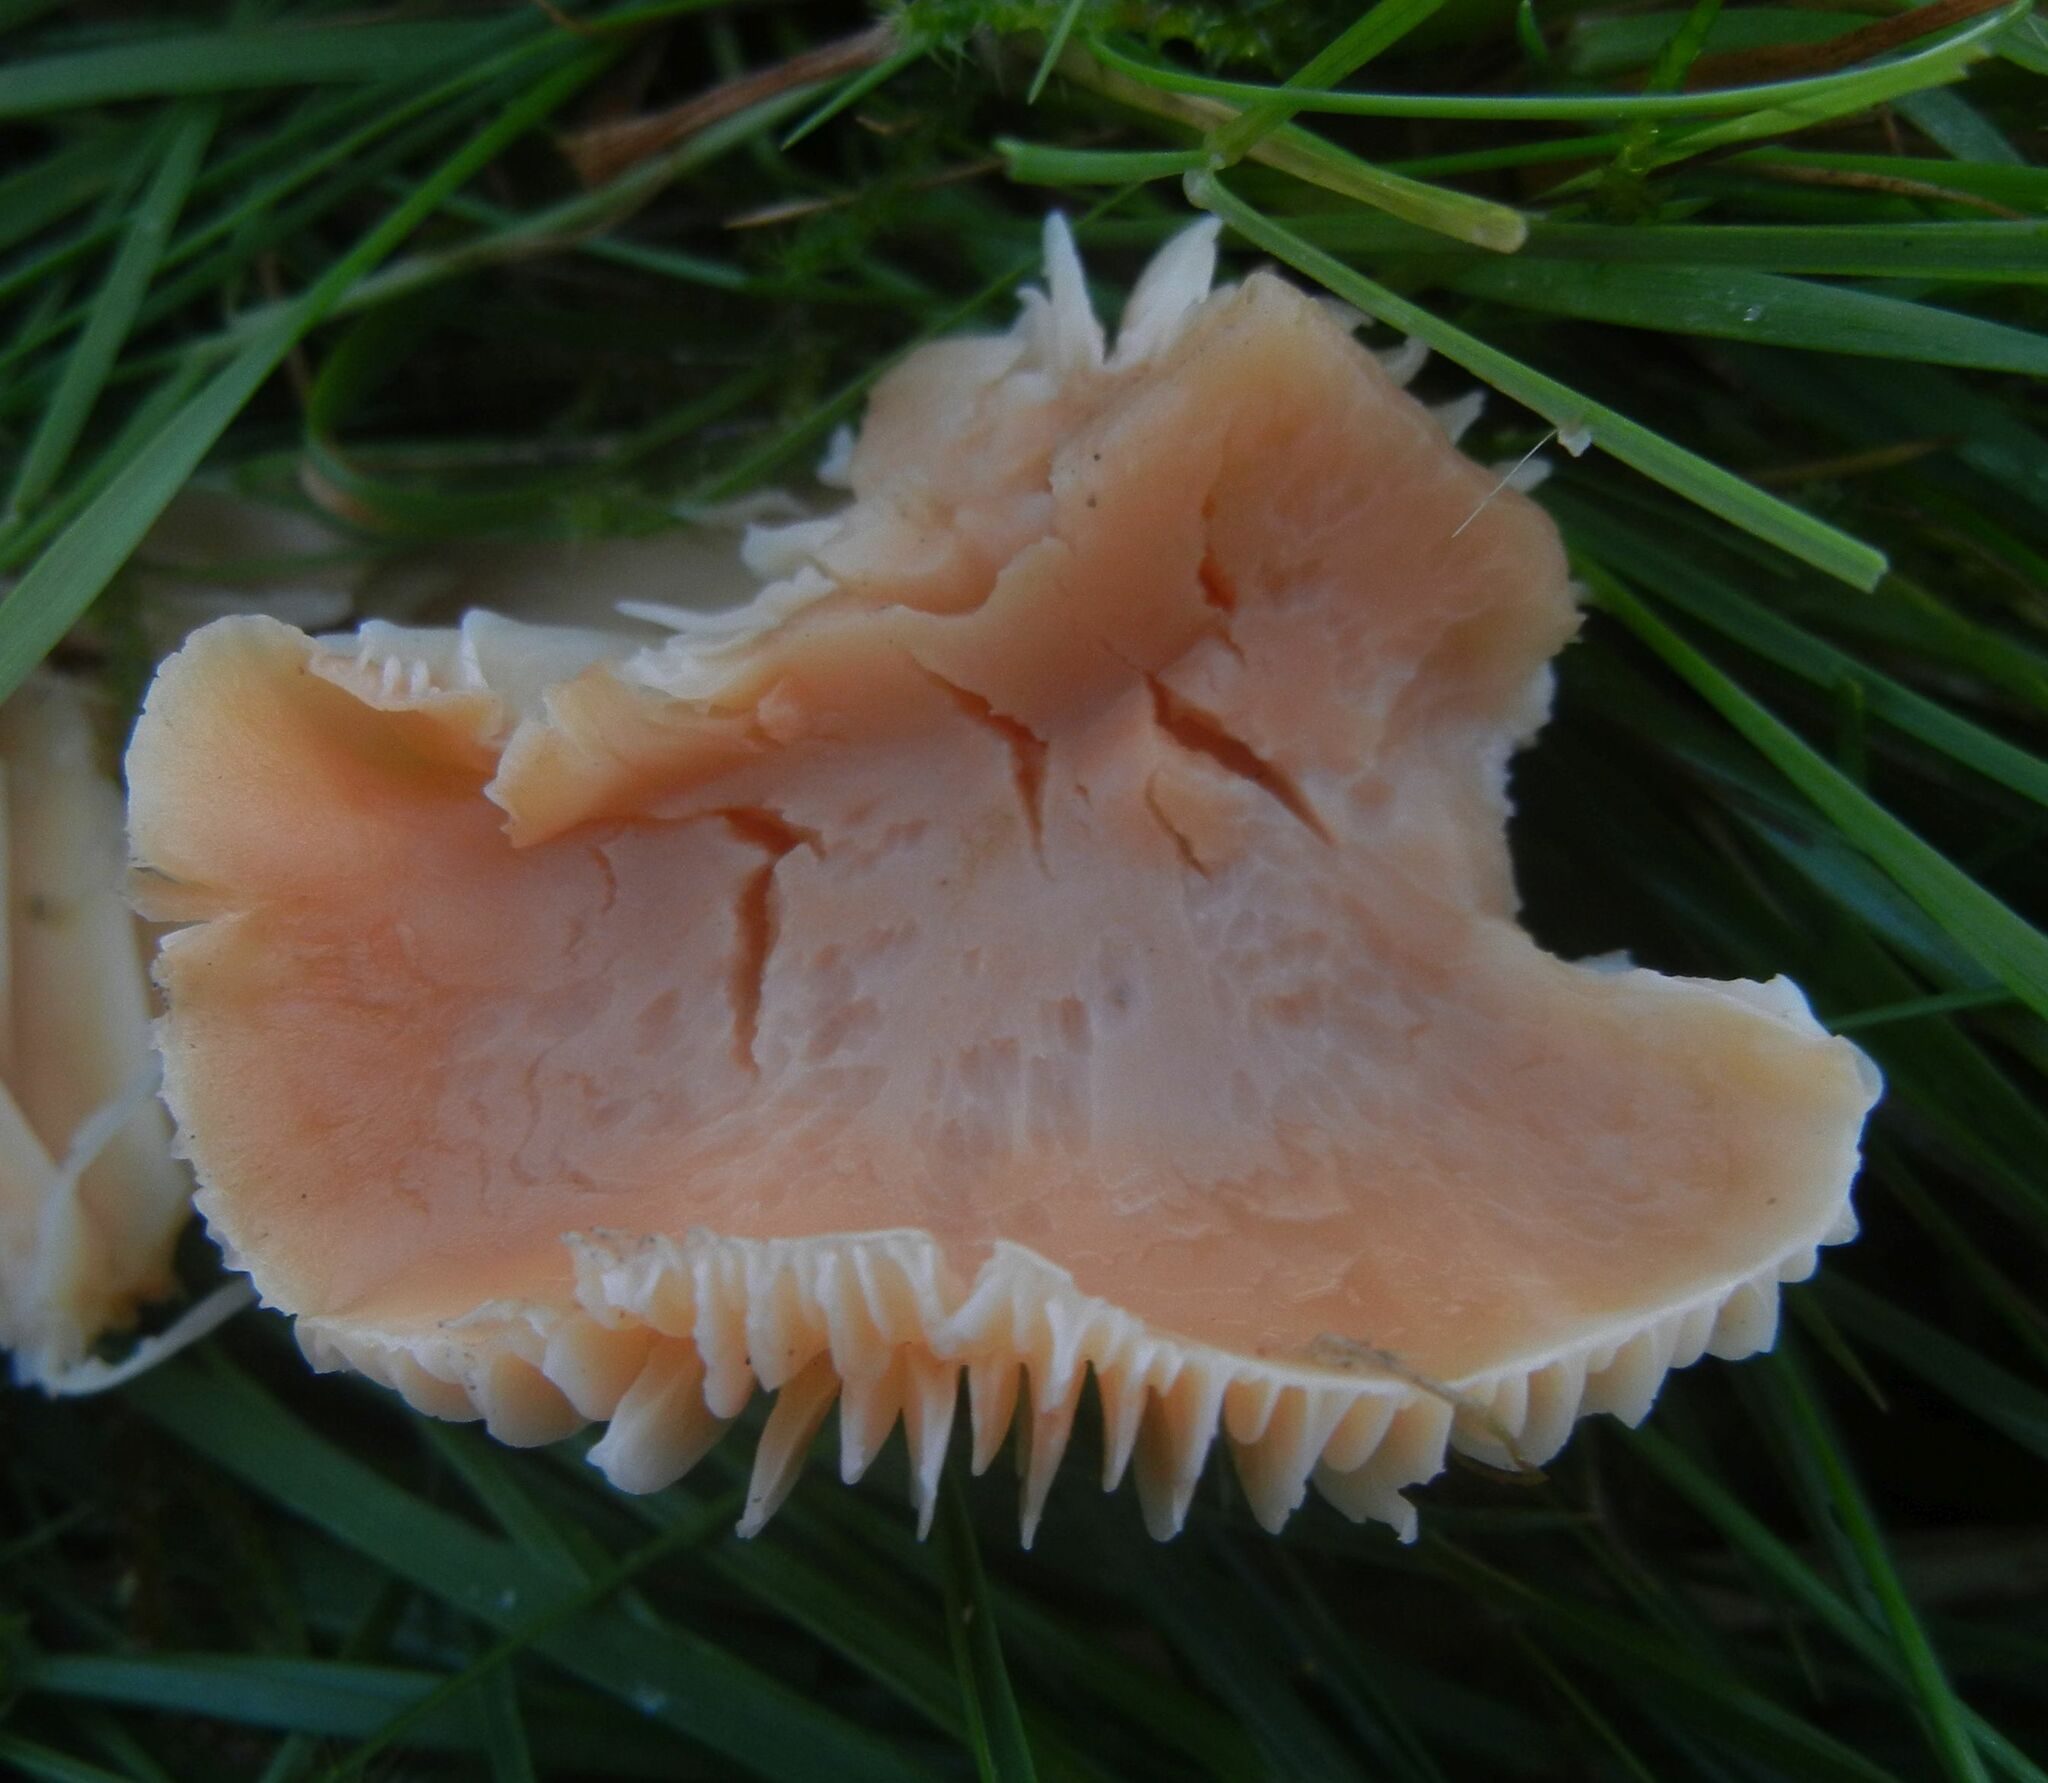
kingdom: Fungi
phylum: Basidiomycota
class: Agaricomycetes
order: Agaricales
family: Hygrophoraceae
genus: Cuphophyllus
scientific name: Cuphophyllus pratensis
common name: Meadow waxcap
